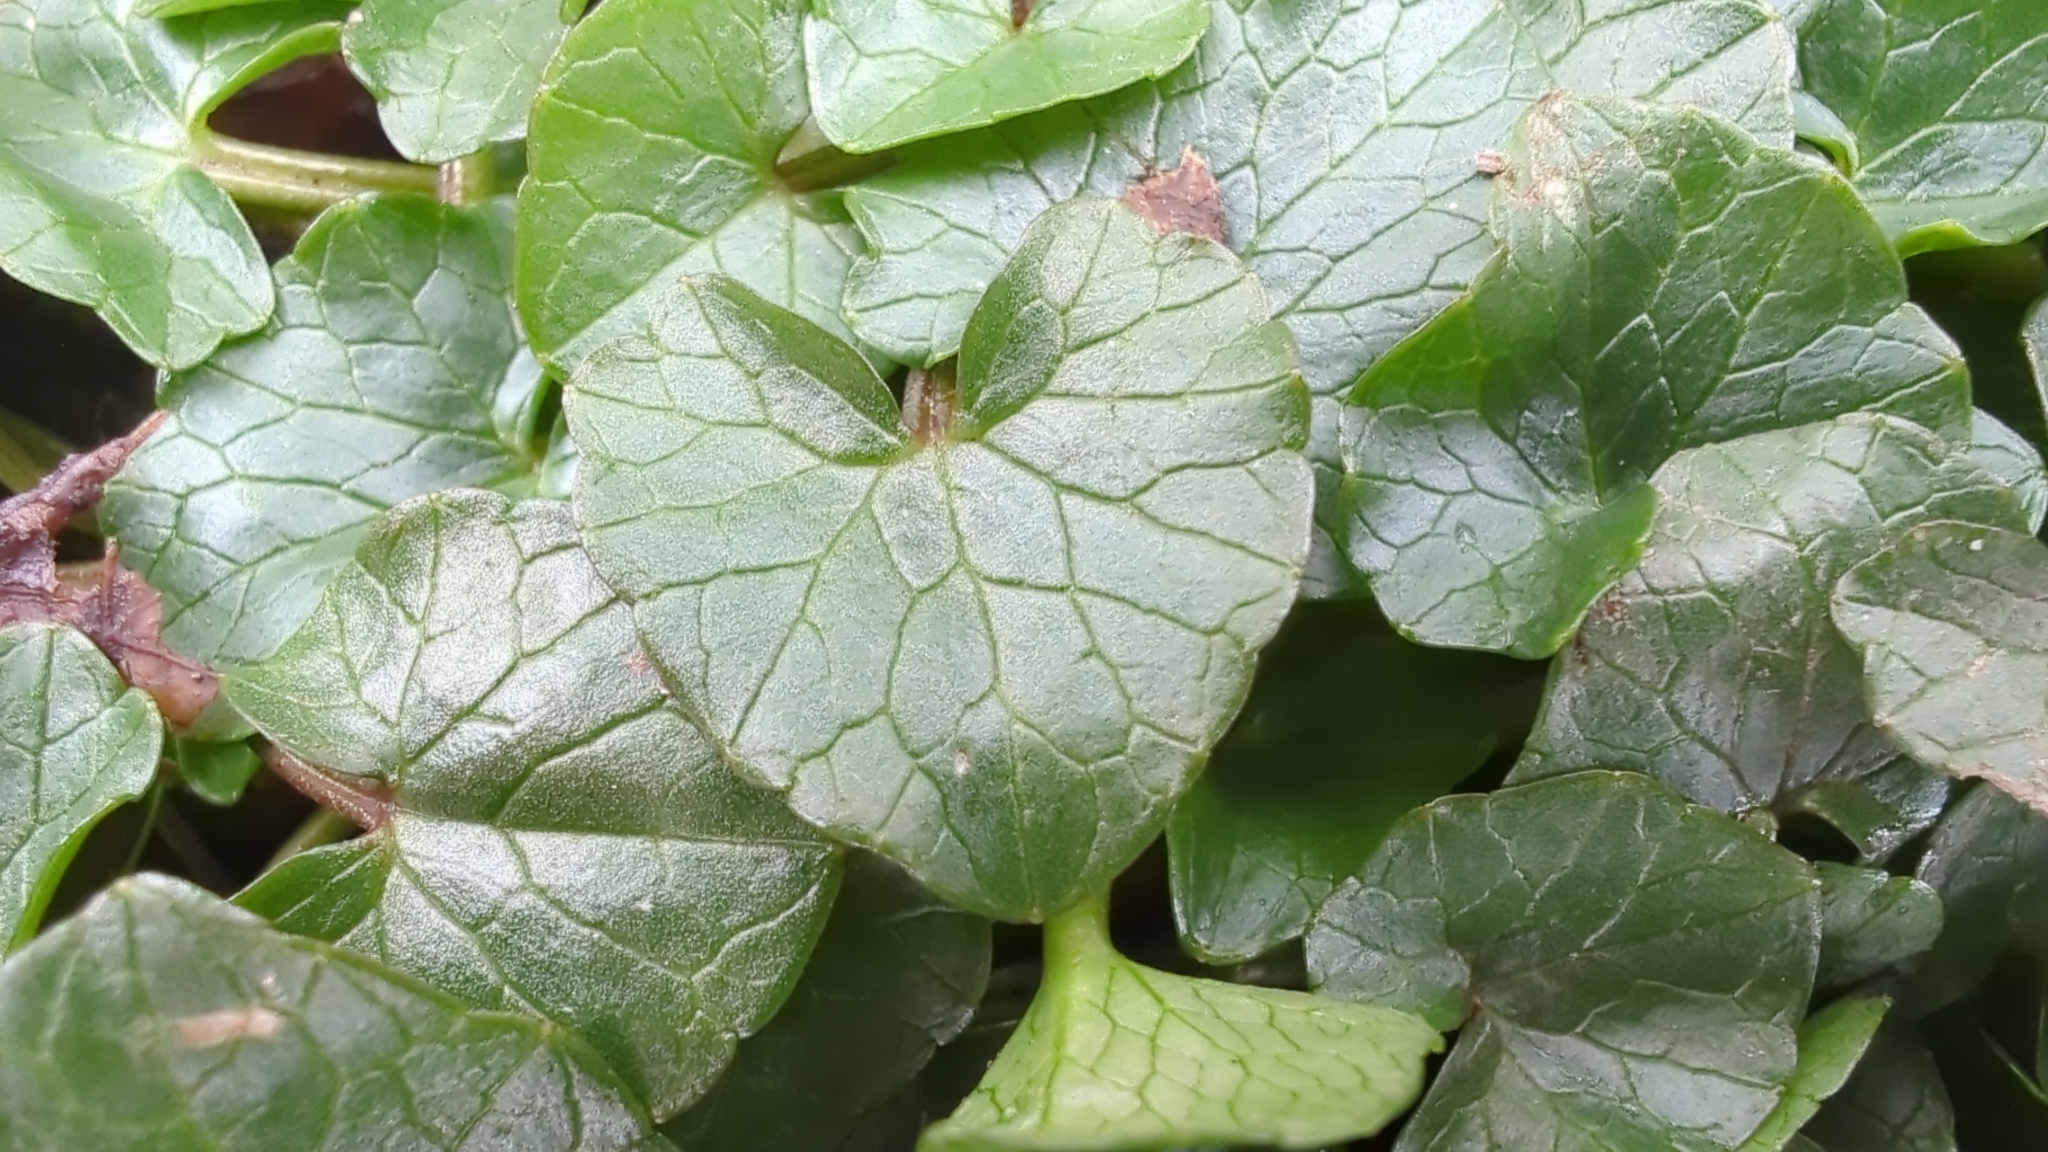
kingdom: Plantae
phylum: Tracheophyta
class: Magnoliopsida
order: Ranunculales
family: Ranunculaceae
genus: Ficaria
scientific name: Ficaria verna
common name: Lesser celandine
